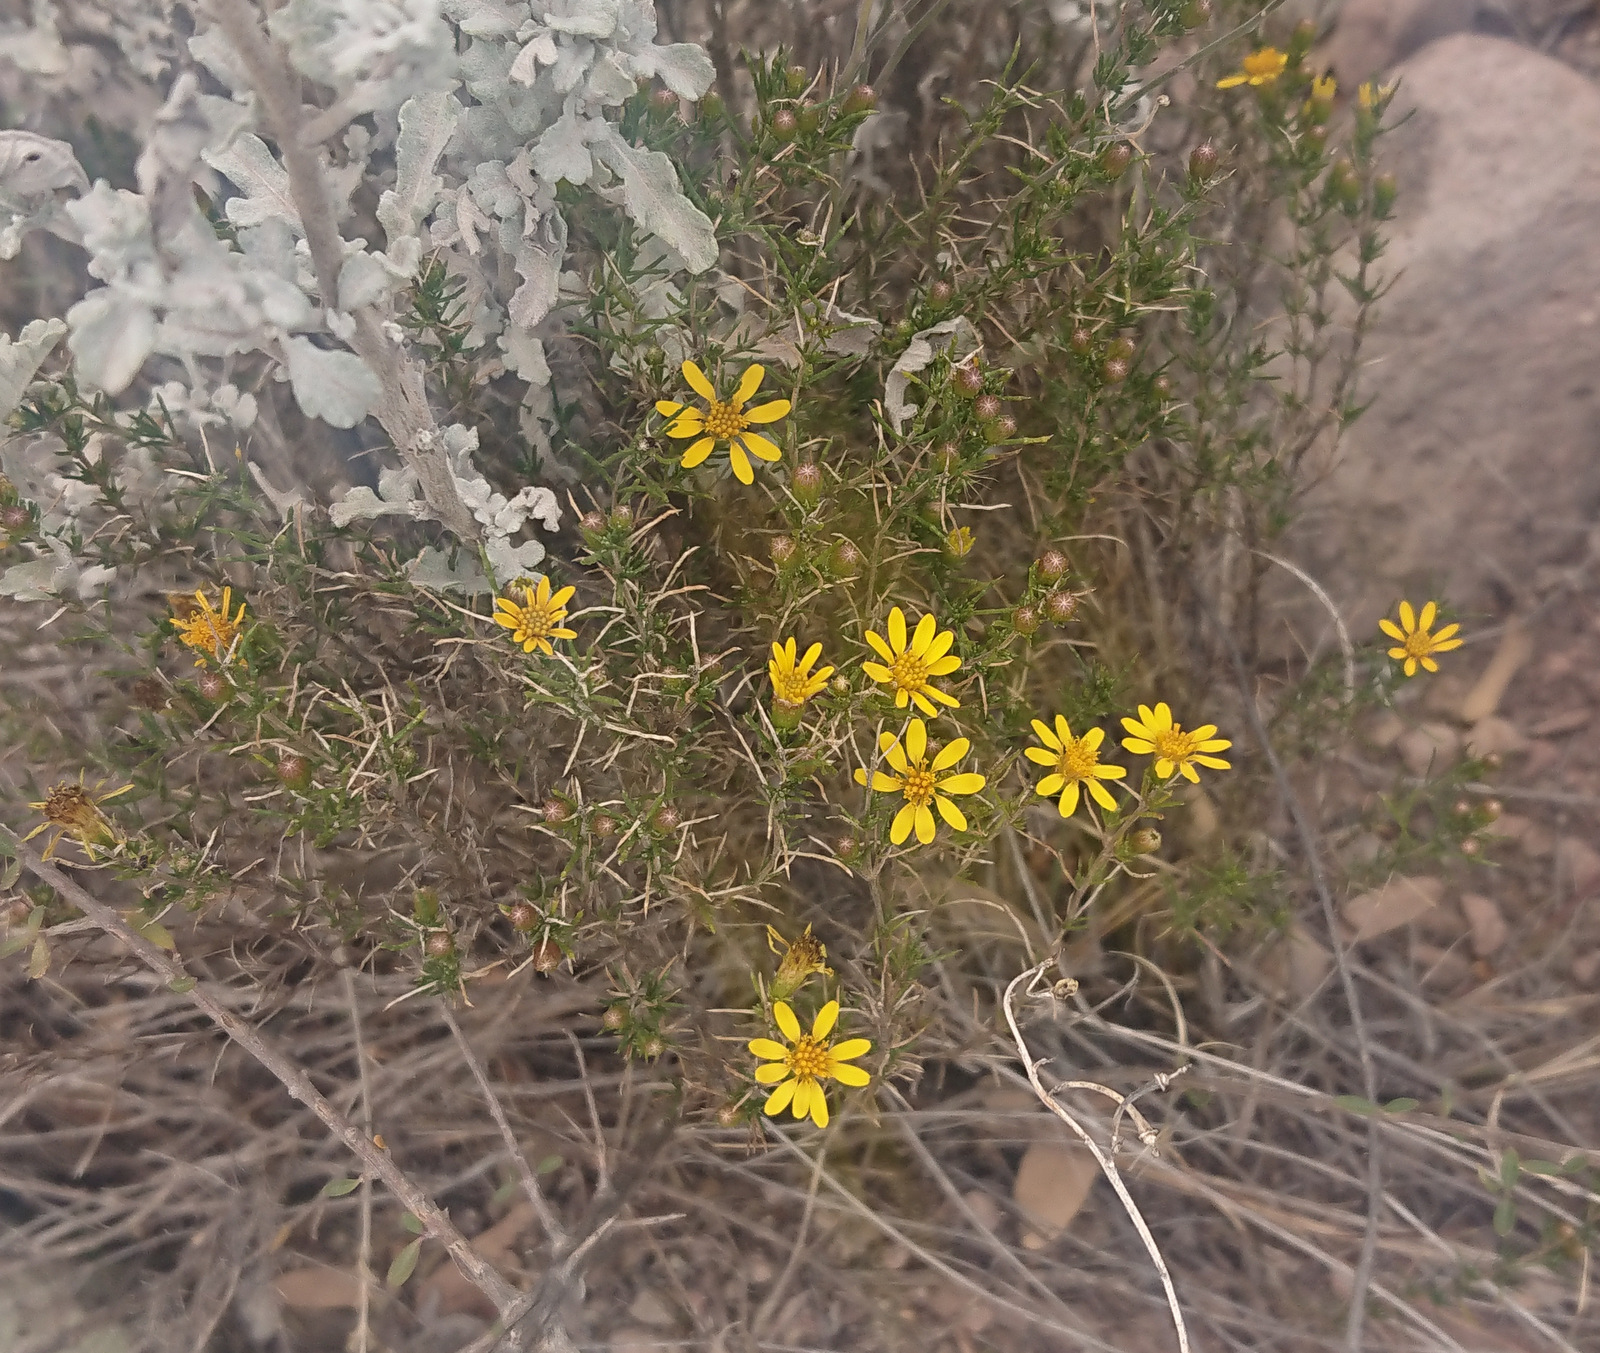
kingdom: Plantae
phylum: Tracheophyta
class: Magnoliopsida
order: Asterales
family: Asteraceae
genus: Thymophylla
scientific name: Thymophylla acerosa
